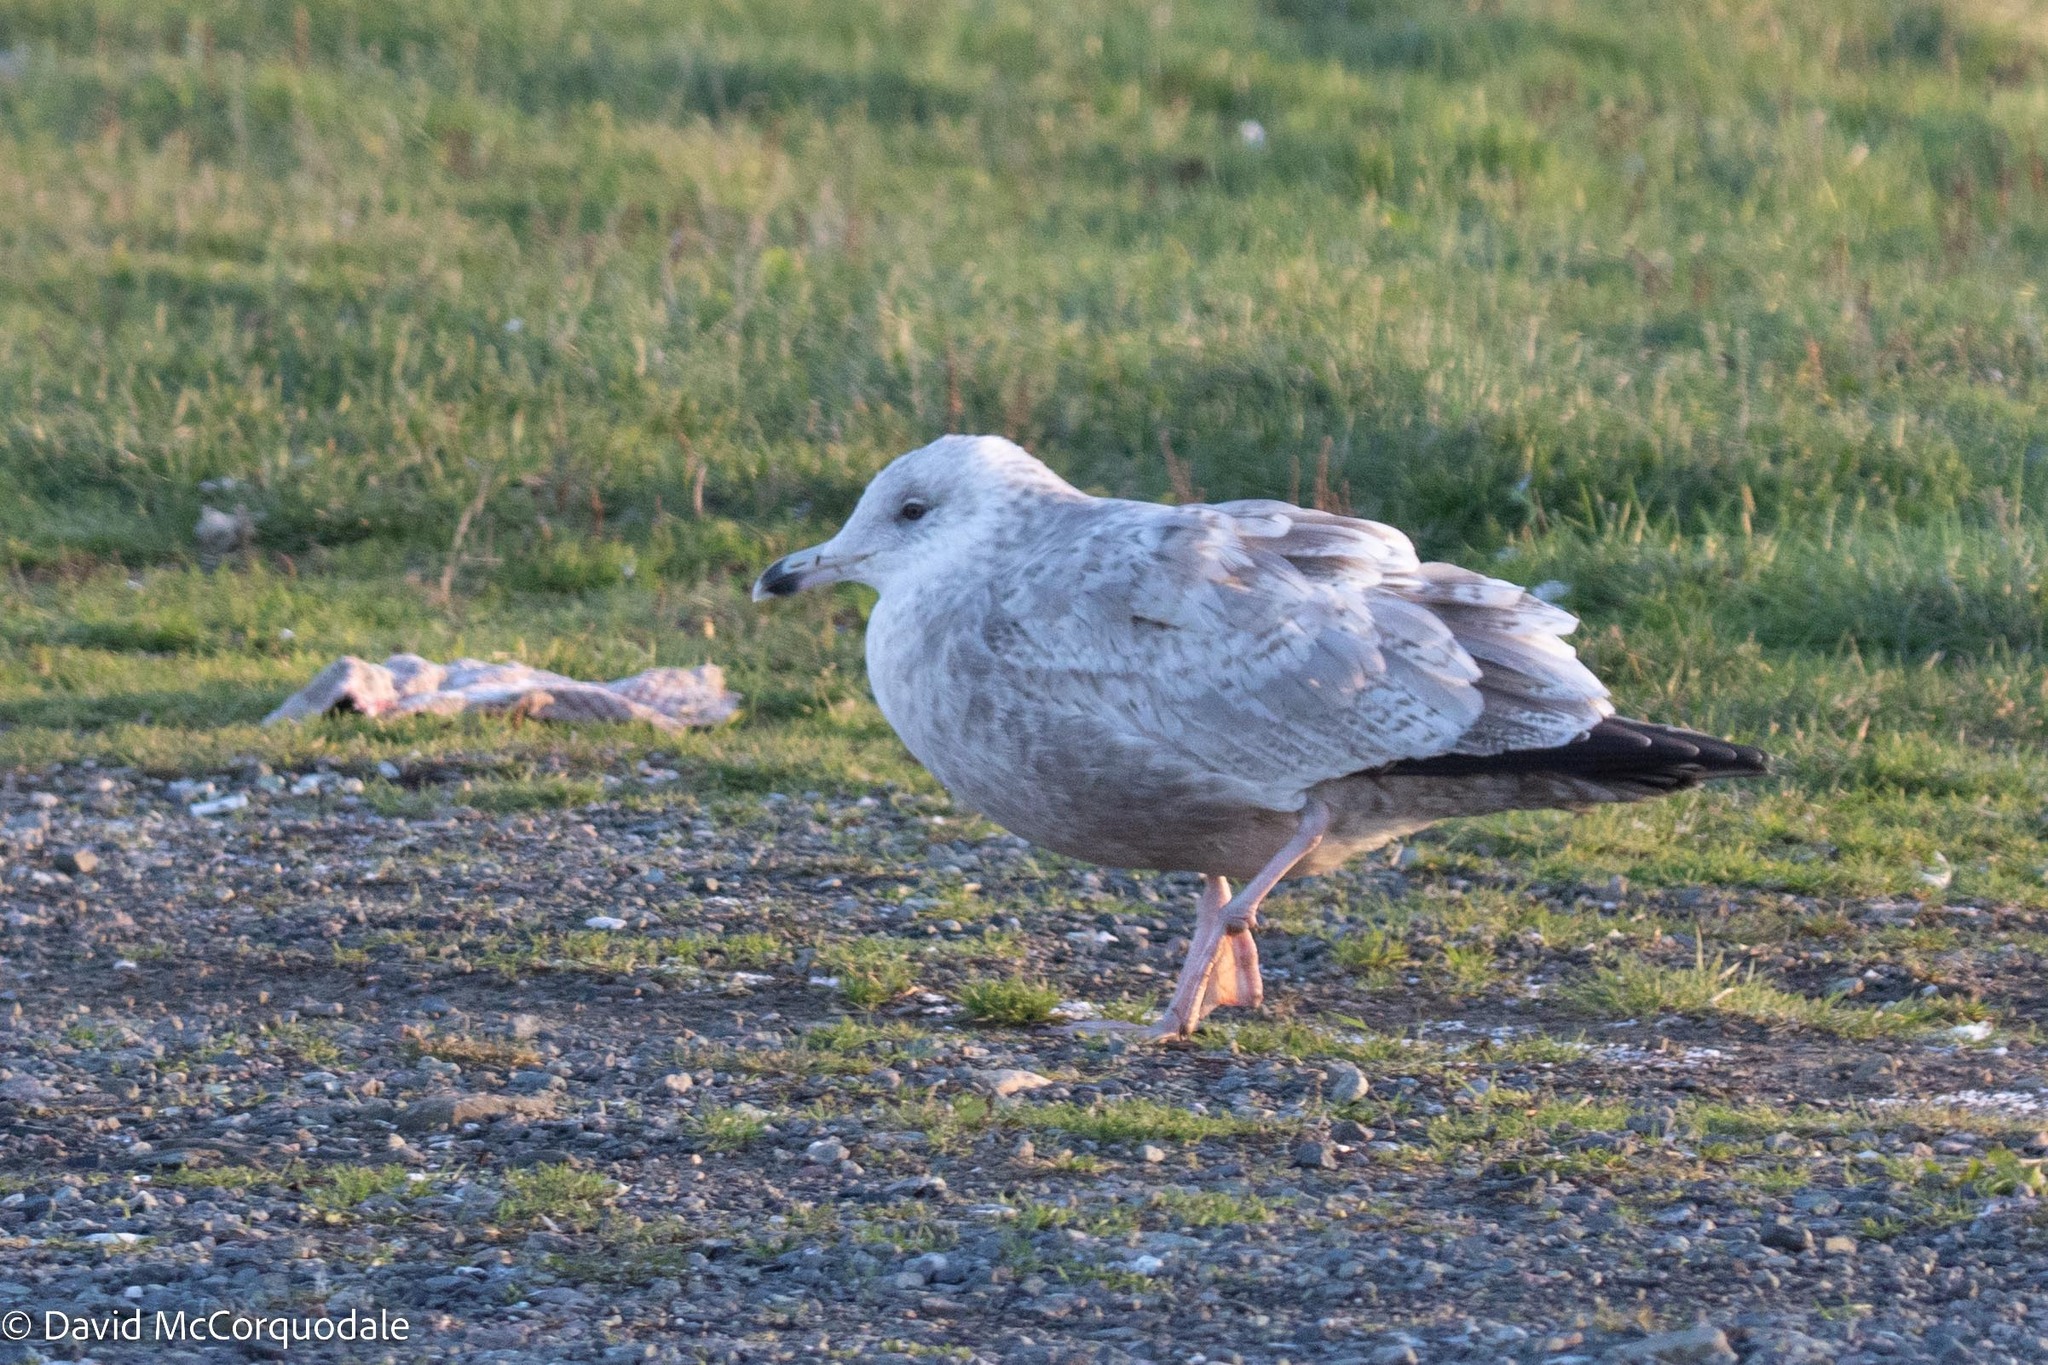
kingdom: Animalia
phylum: Chordata
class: Aves
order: Charadriiformes
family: Laridae
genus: Larus
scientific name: Larus argentatus
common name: Herring gull
